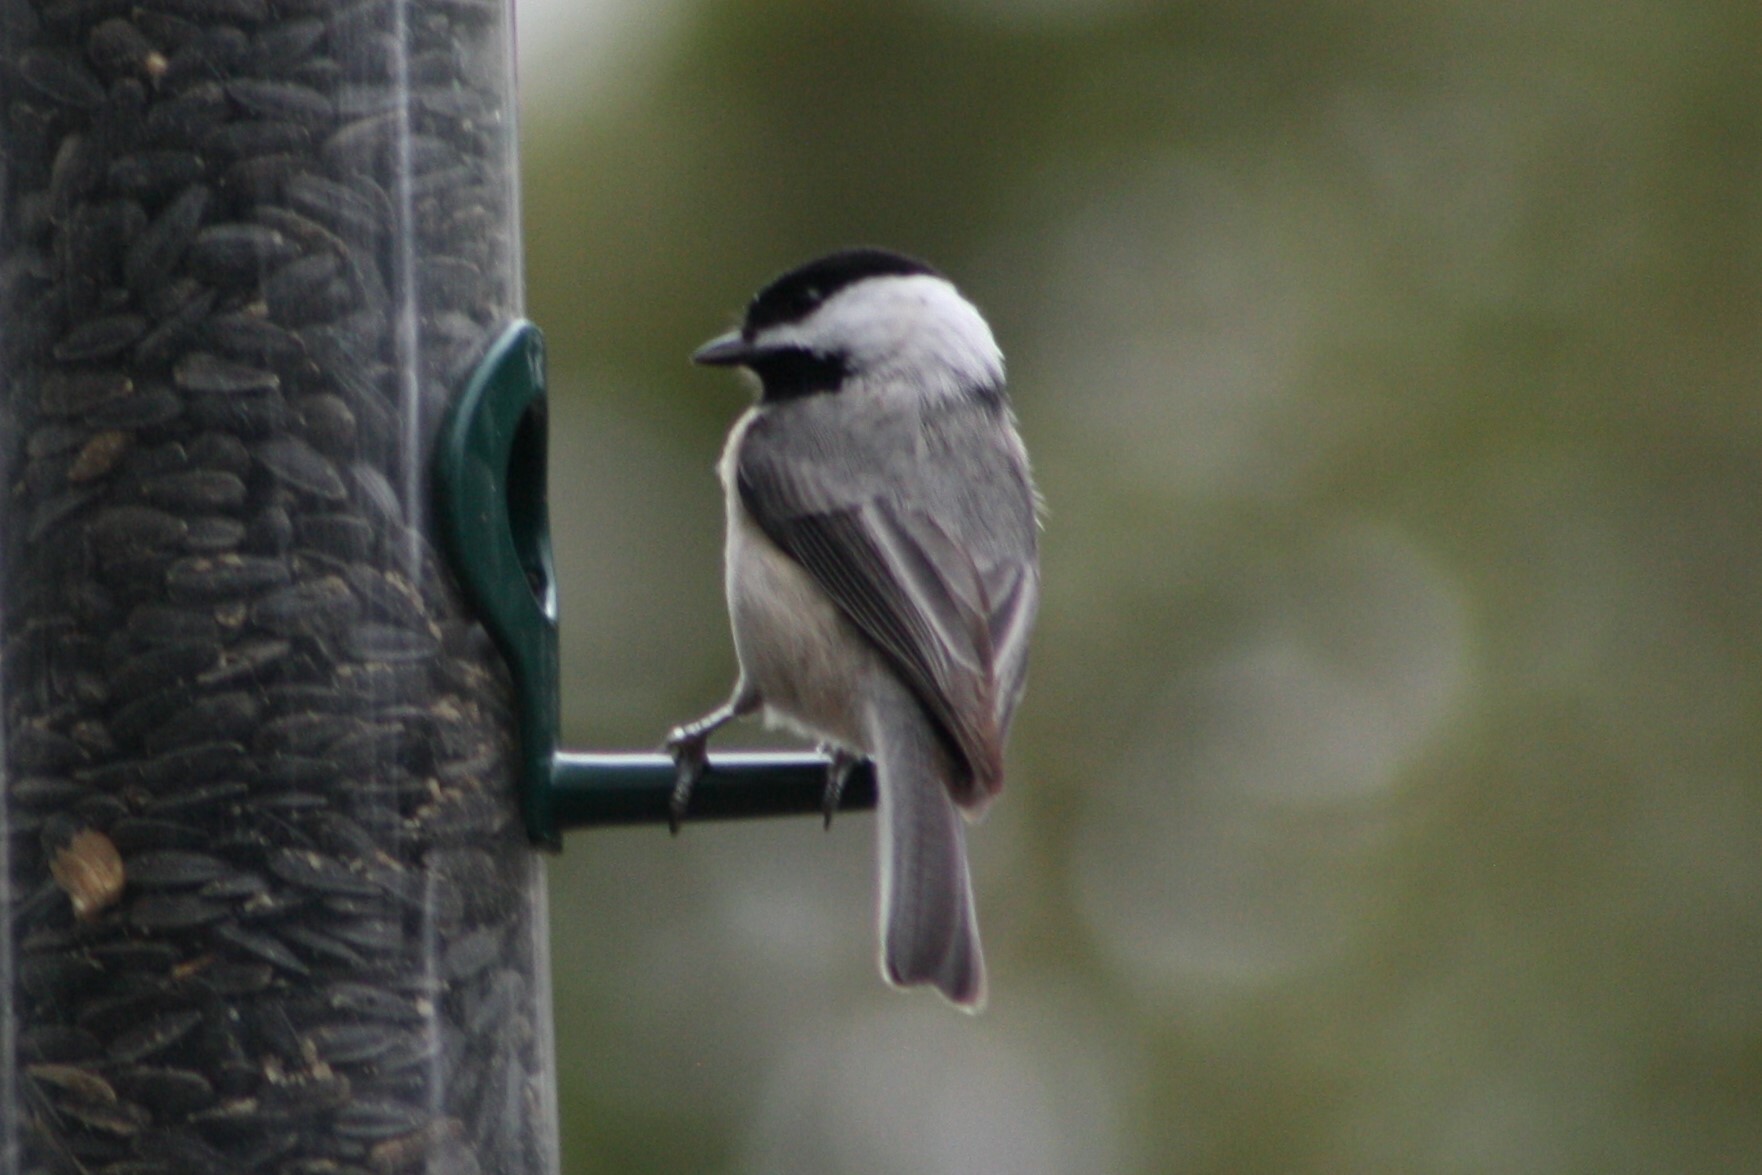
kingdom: Animalia
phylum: Chordata
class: Aves
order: Passeriformes
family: Paridae
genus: Poecile
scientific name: Poecile carolinensis
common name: Carolina chickadee
